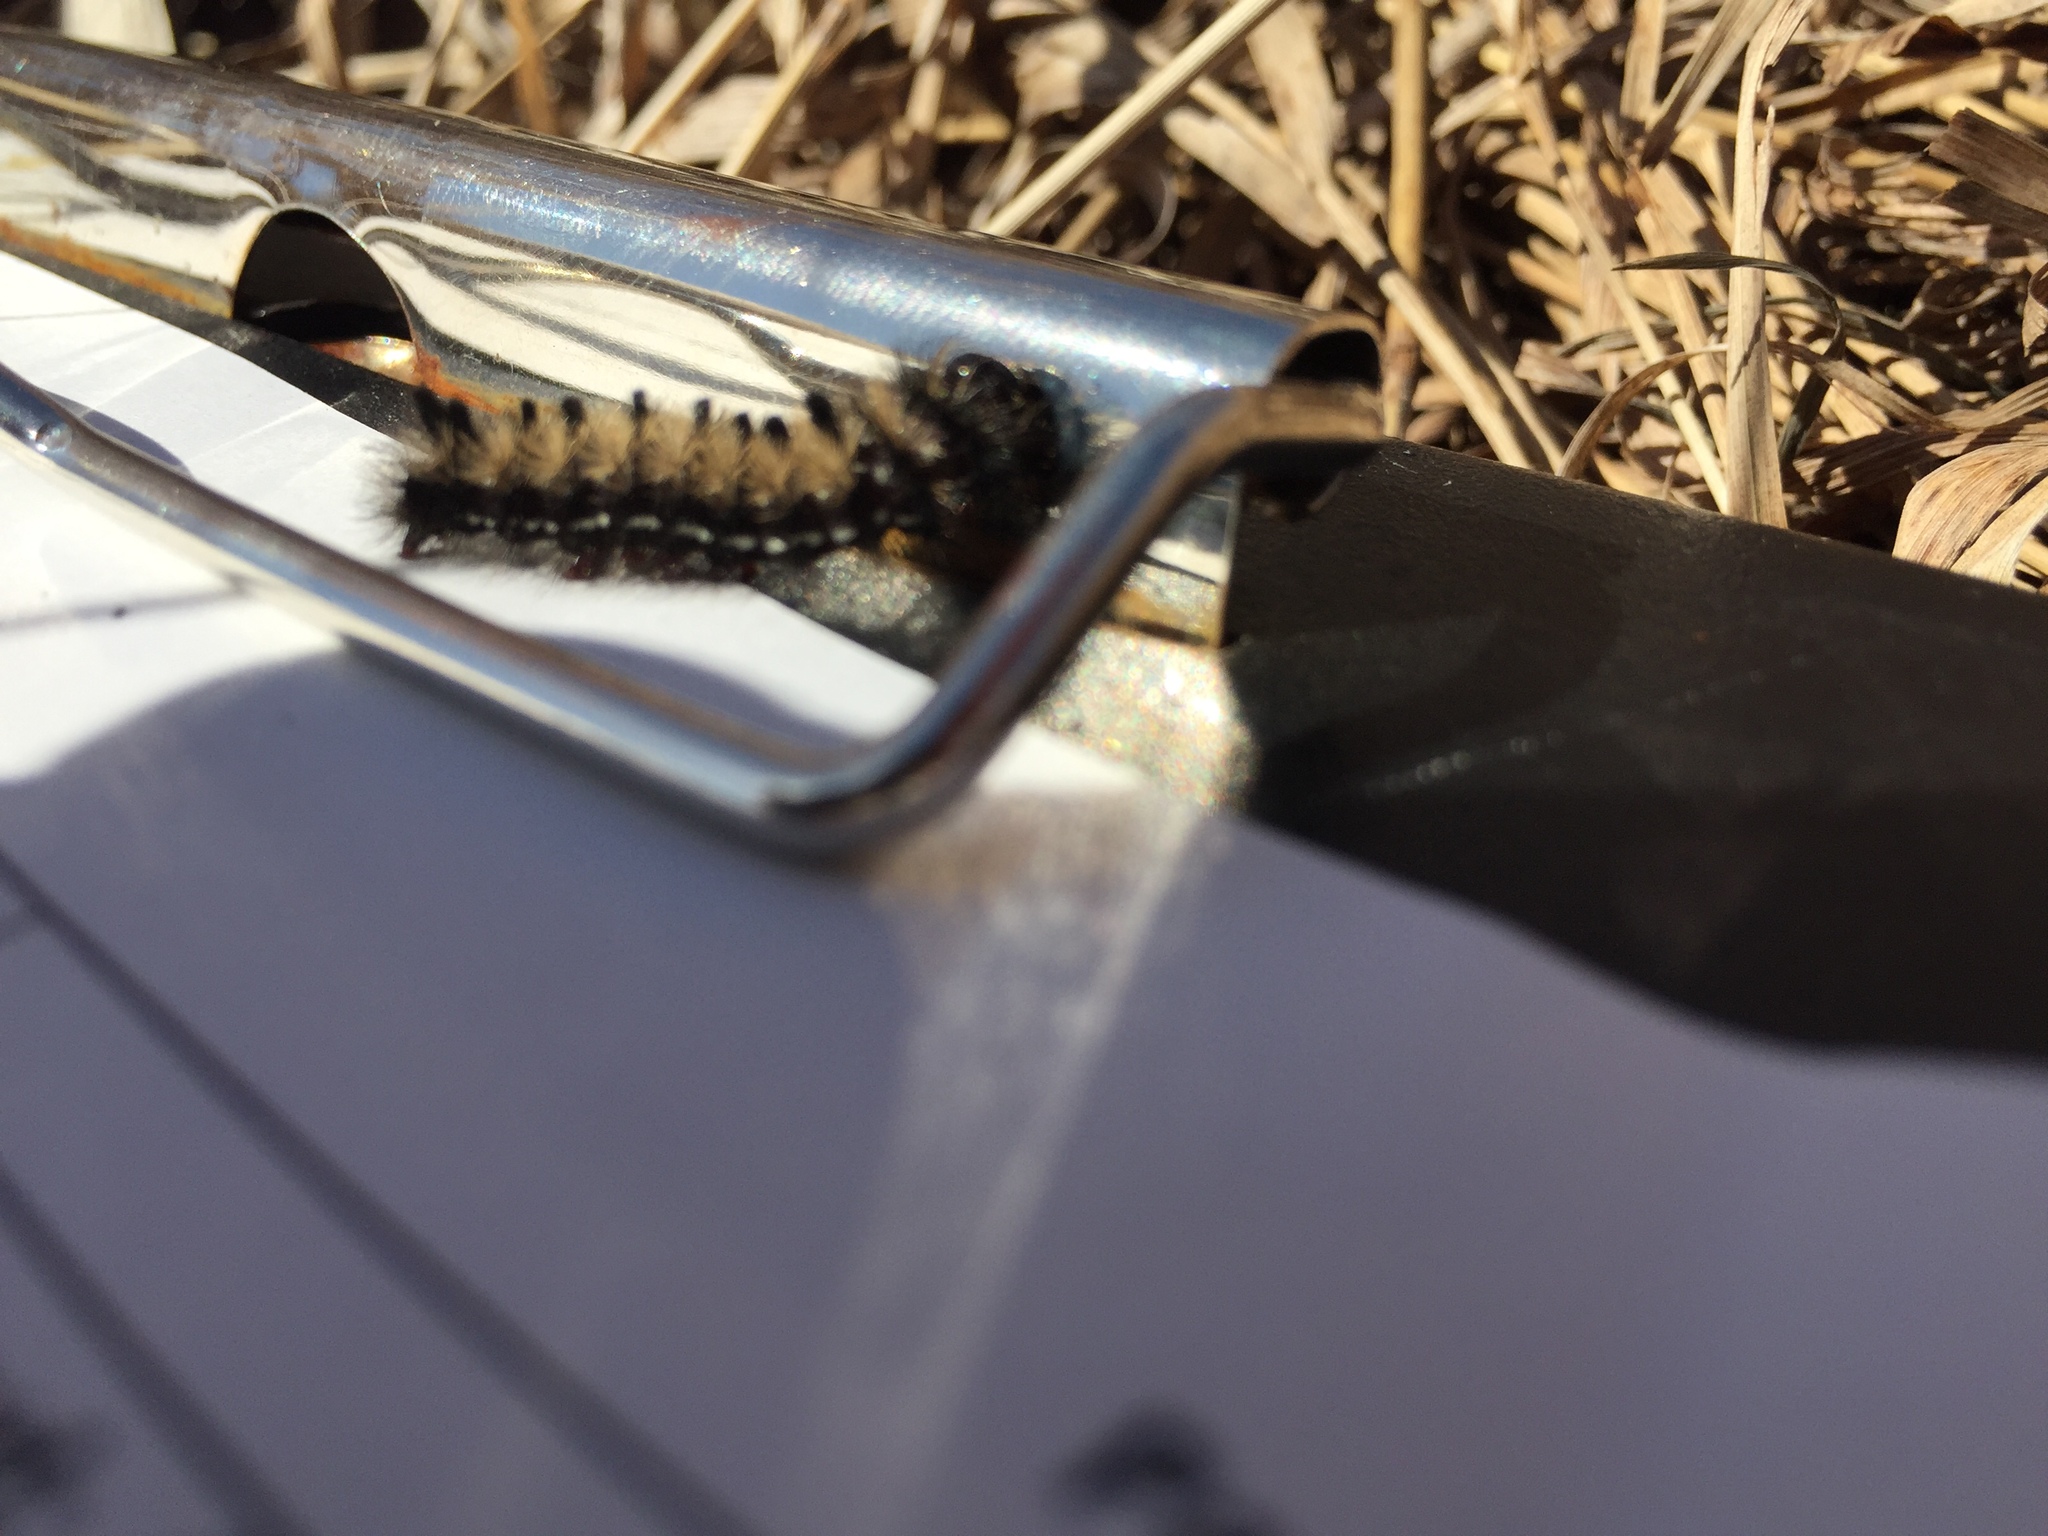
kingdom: Animalia
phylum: Arthropoda
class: Insecta
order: Lepidoptera
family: Erebidae
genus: Ctenucha
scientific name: Ctenucha virginica
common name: Virginia ctenucha moth
